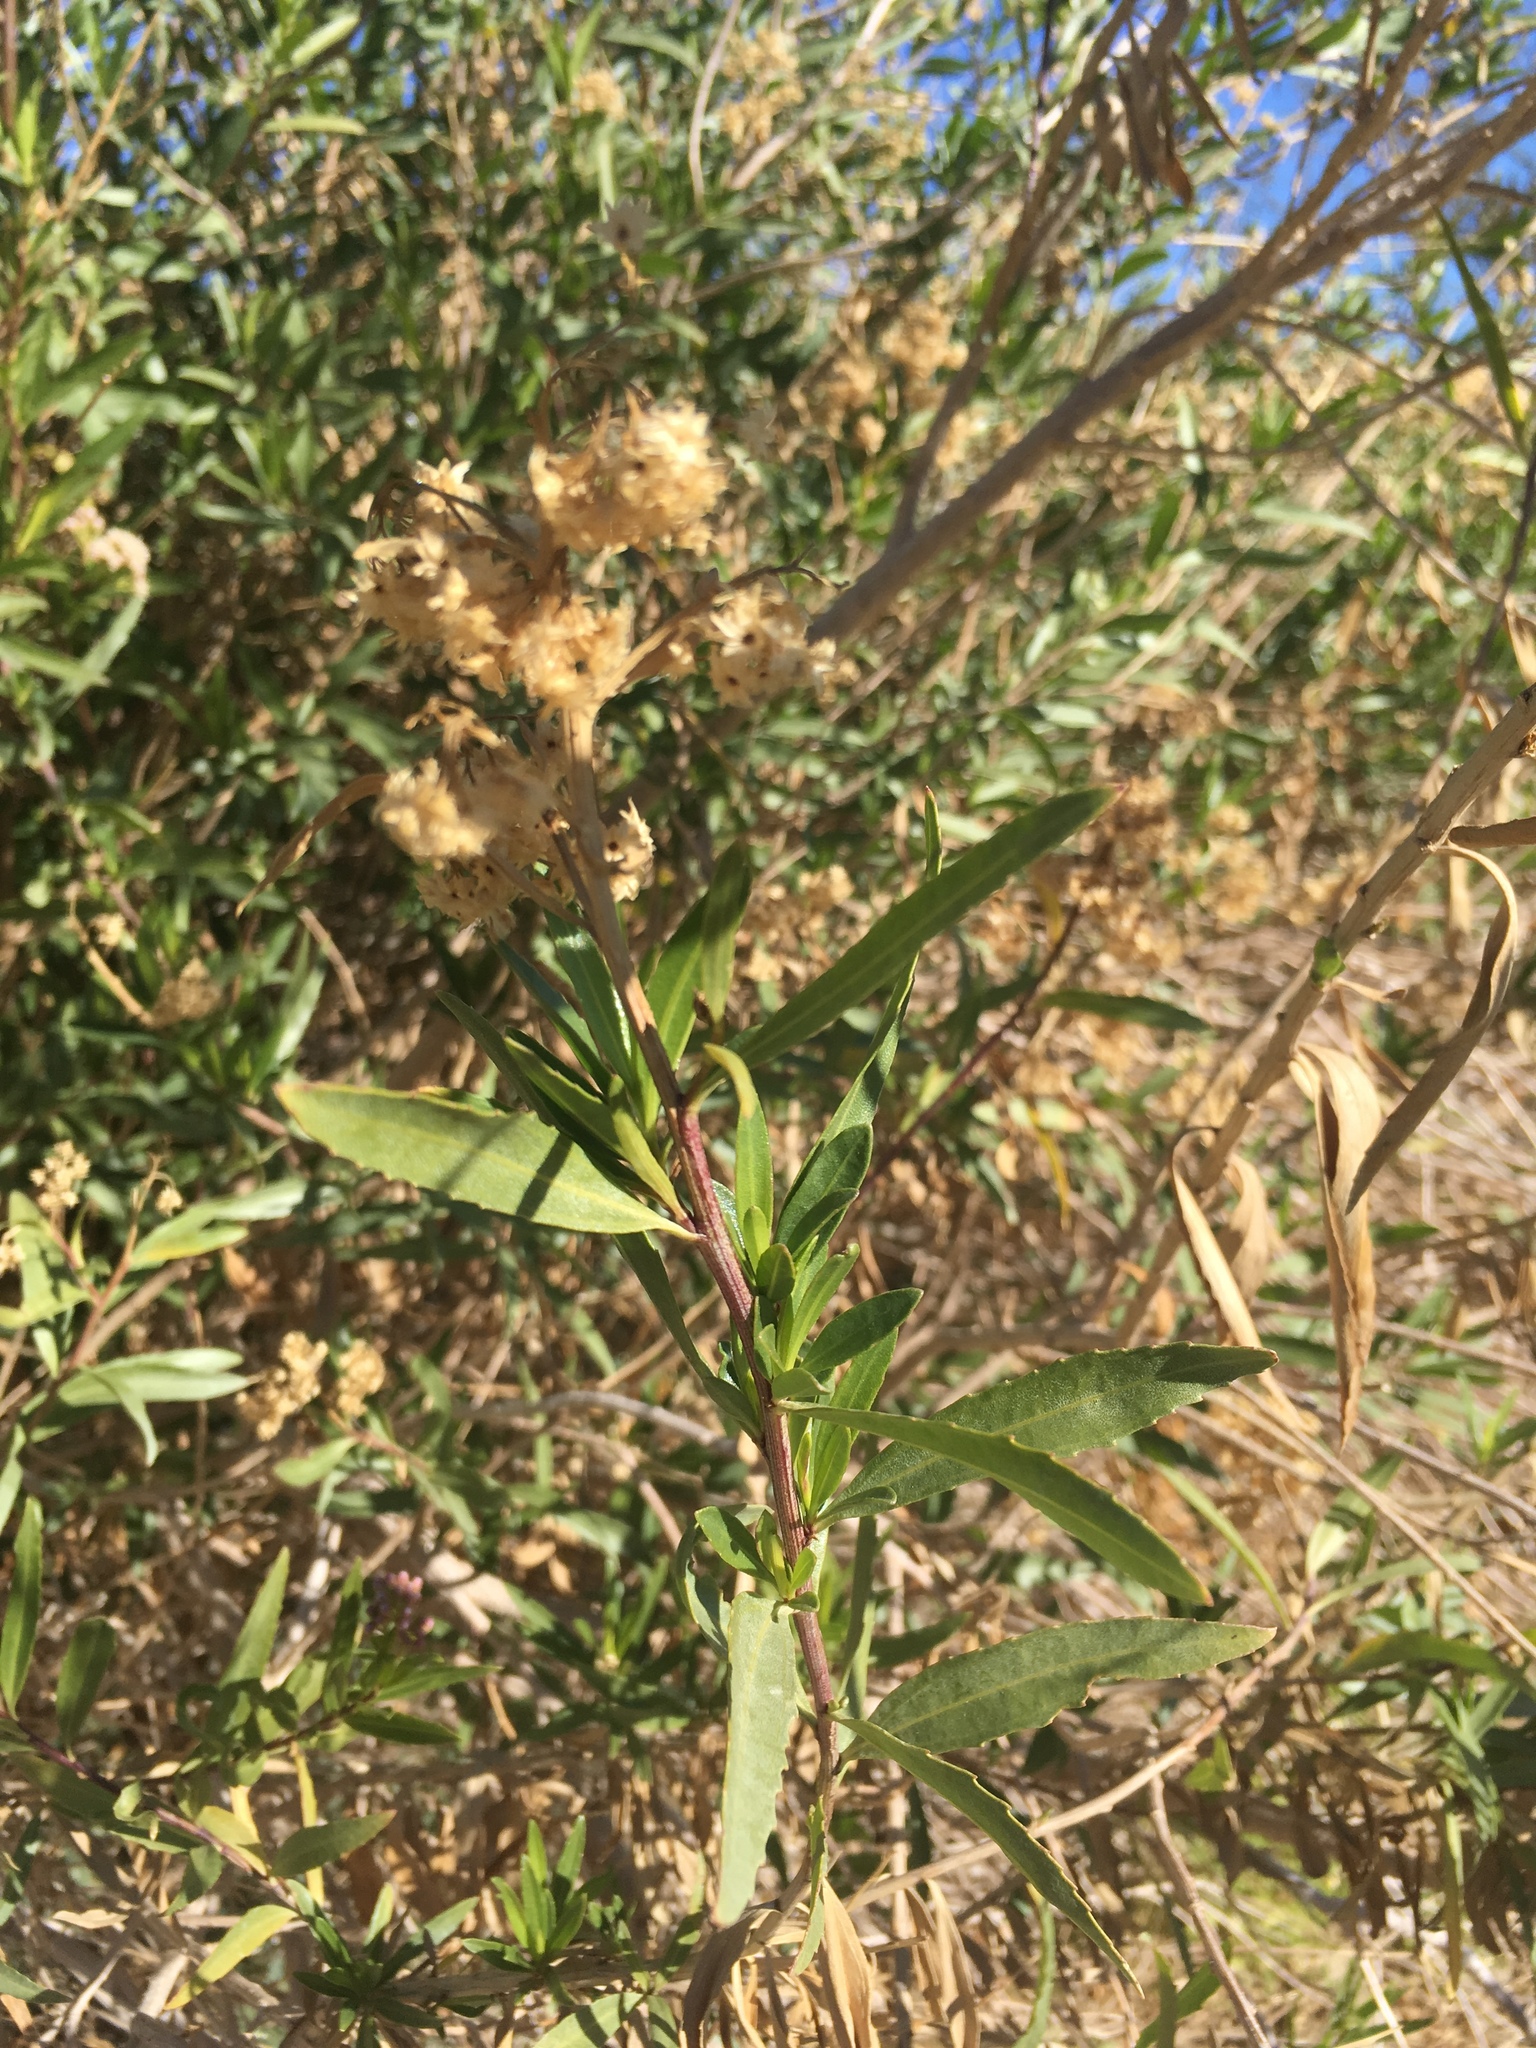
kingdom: Plantae
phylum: Tracheophyta
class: Magnoliopsida
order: Asterales
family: Asteraceae
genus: Baccharis
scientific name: Baccharis salicifolia
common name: Sticky baccharis
